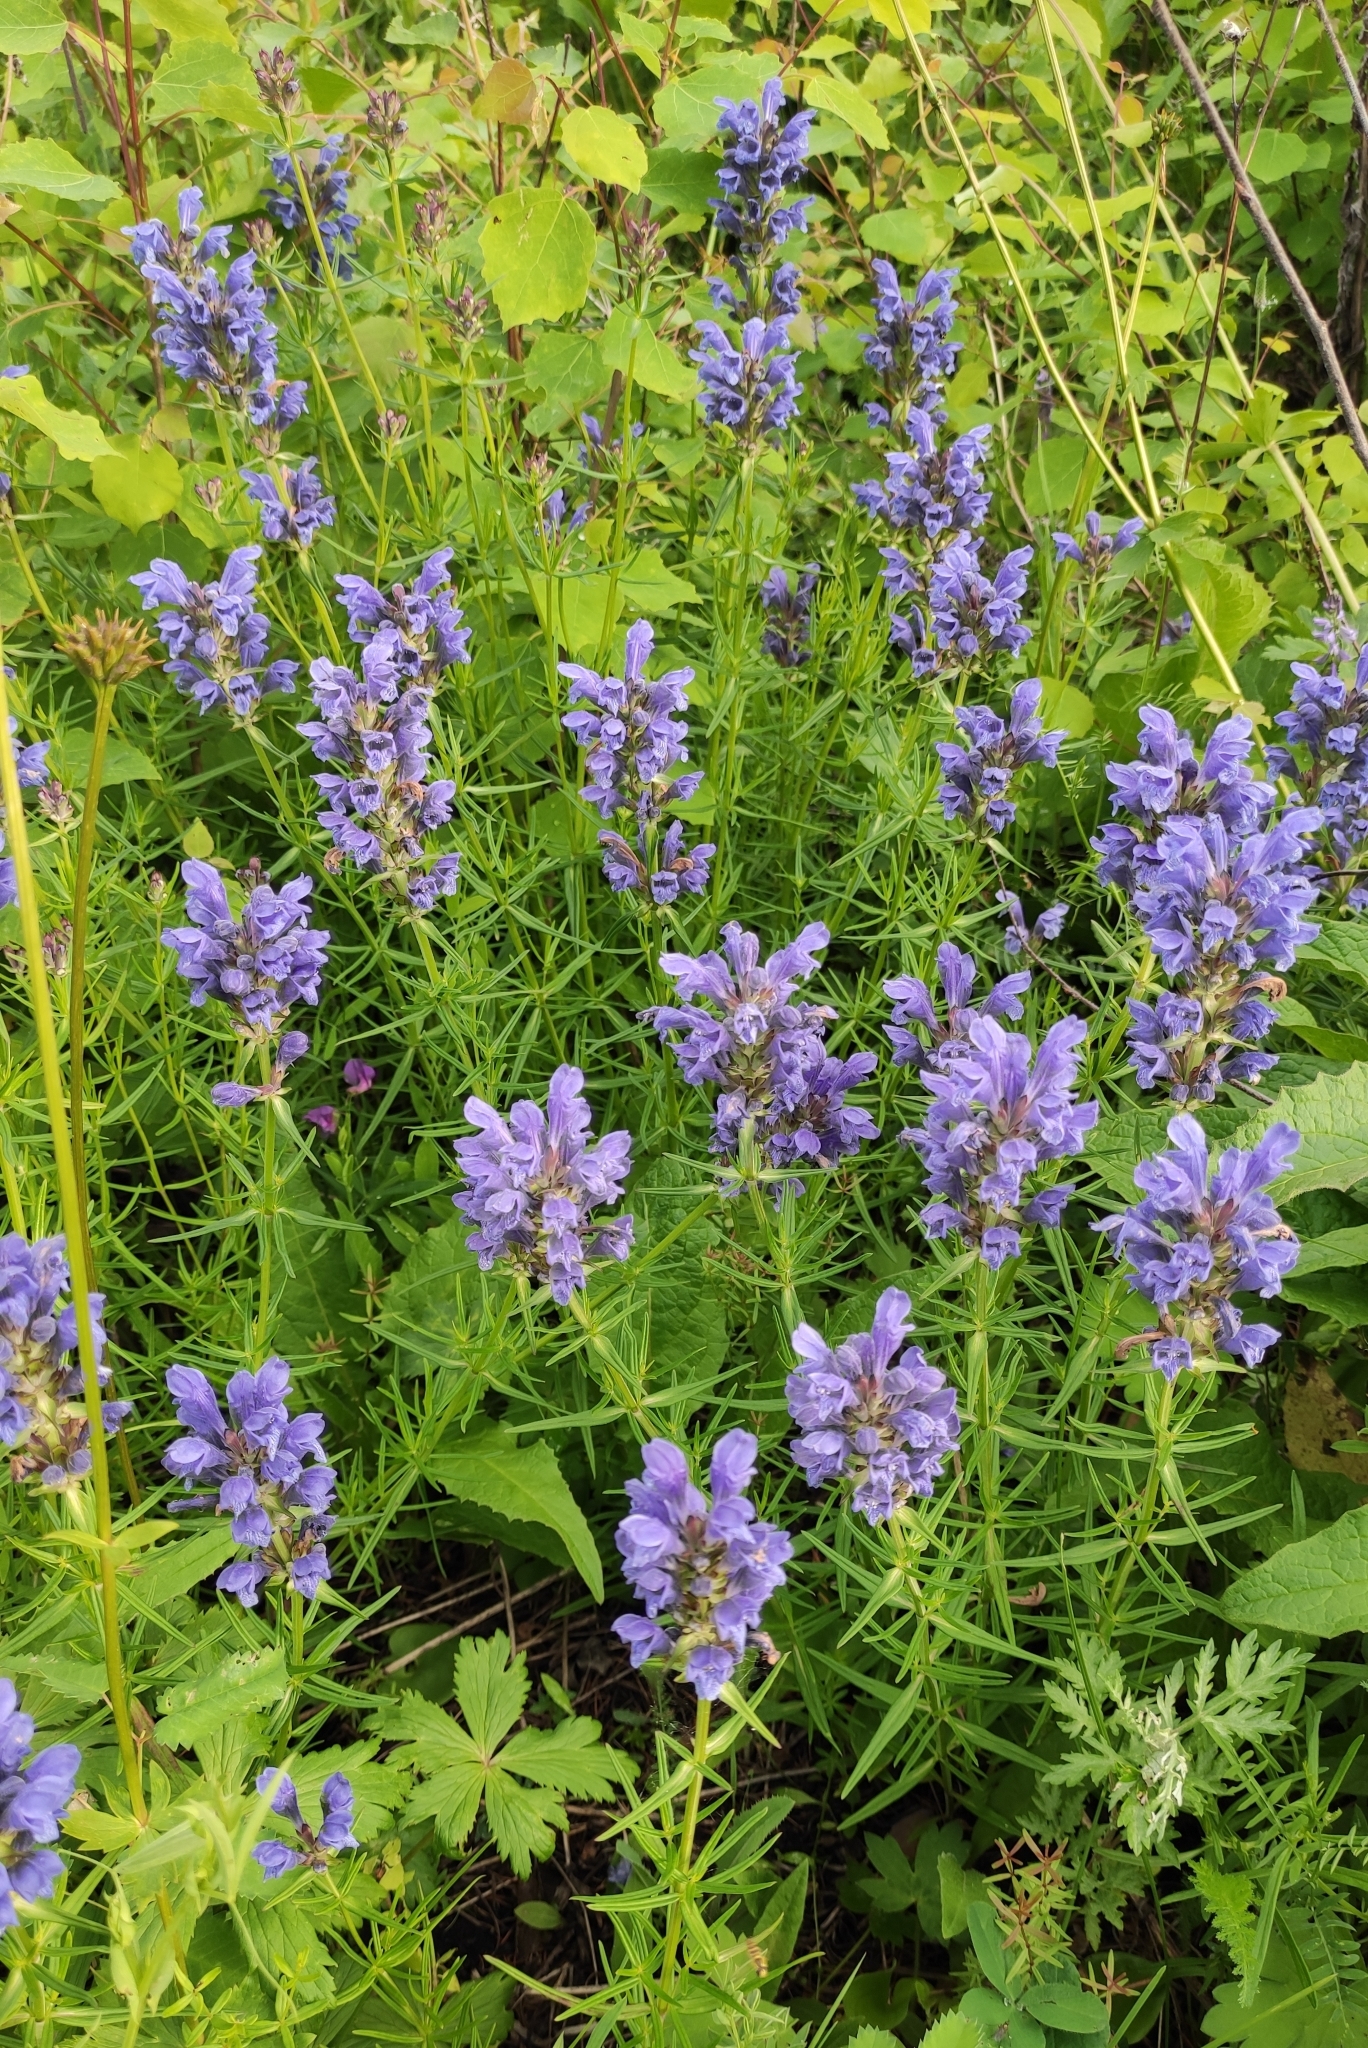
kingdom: Plantae
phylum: Tracheophyta
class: Magnoliopsida
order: Lamiales
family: Lamiaceae
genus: Dracocephalum
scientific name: Dracocephalum ruyschiana
